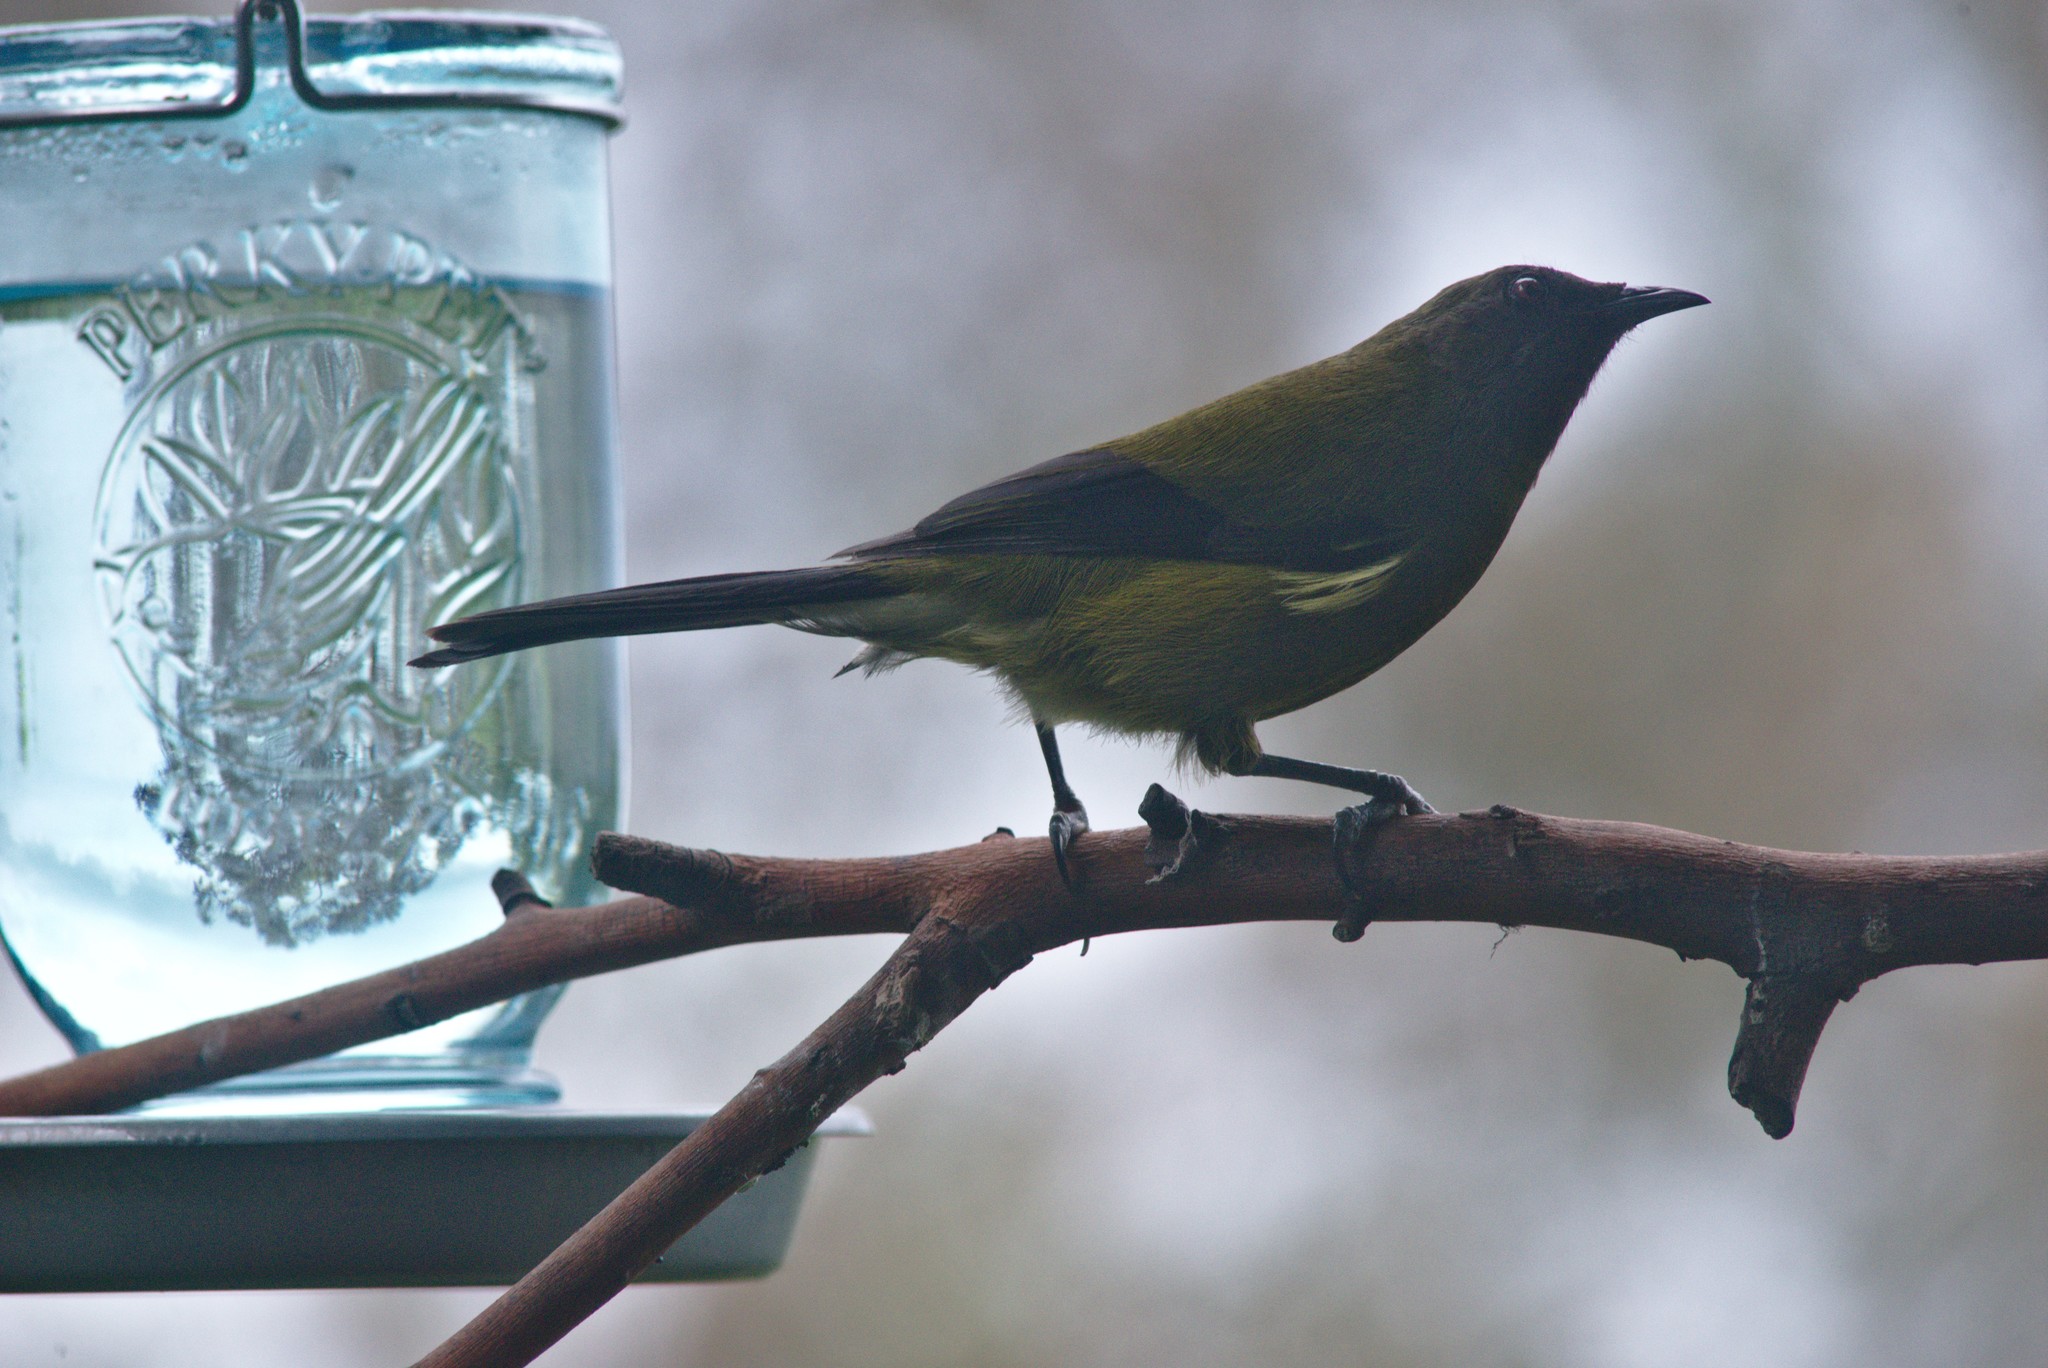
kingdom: Animalia
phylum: Chordata
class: Aves
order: Passeriformes
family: Meliphagidae
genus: Anthornis
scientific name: Anthornis melanura
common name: New zealand bellbird
